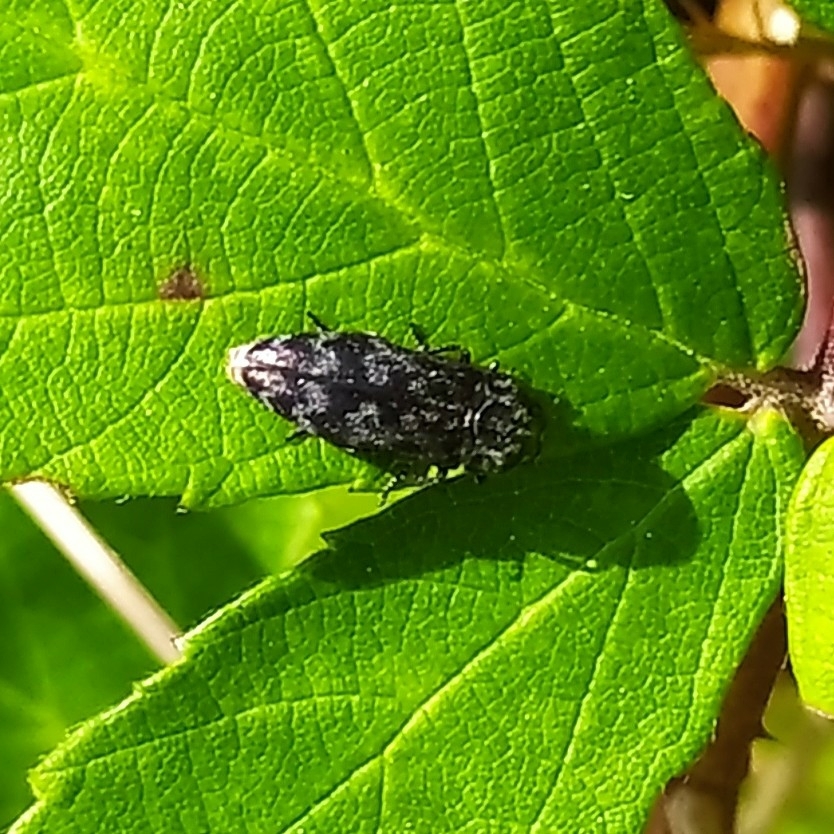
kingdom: Animalia
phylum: Arthropoda
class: Insecta
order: Coleoptera
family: Buprestidae
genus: Coraebus
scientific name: Coraebus rubi
